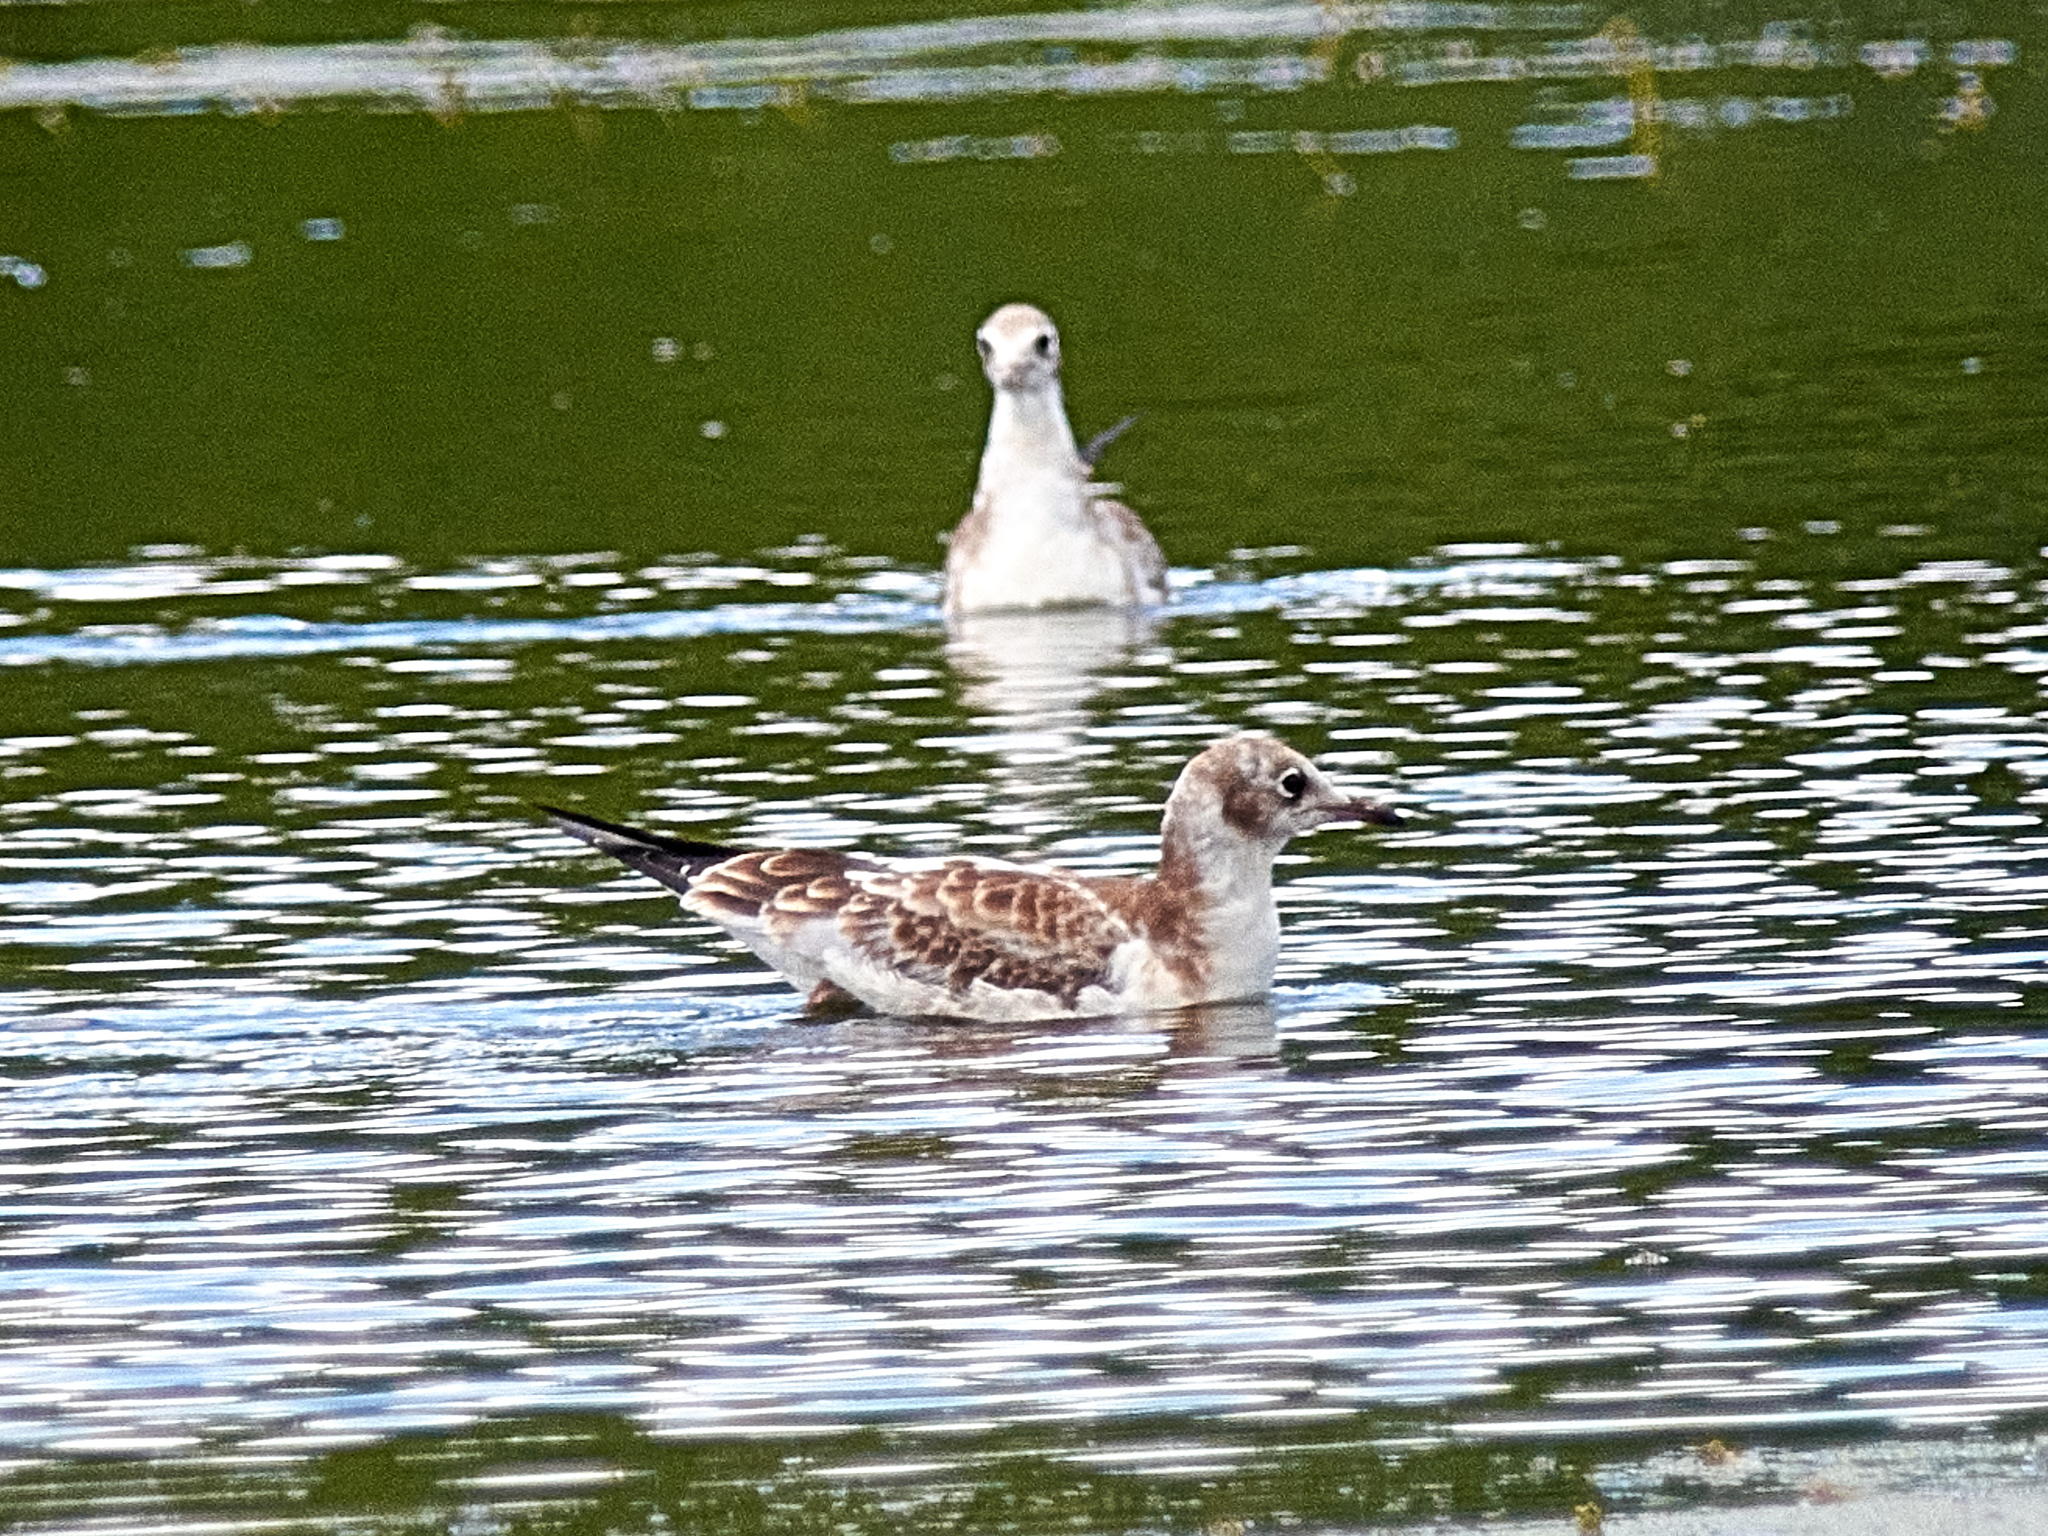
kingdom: Animalia
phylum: Chordata
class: Aves
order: Charadriiformes
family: Laridae
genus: Chroicocephalus
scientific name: Chroicocephalus ridibundus
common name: Black-headed gull
